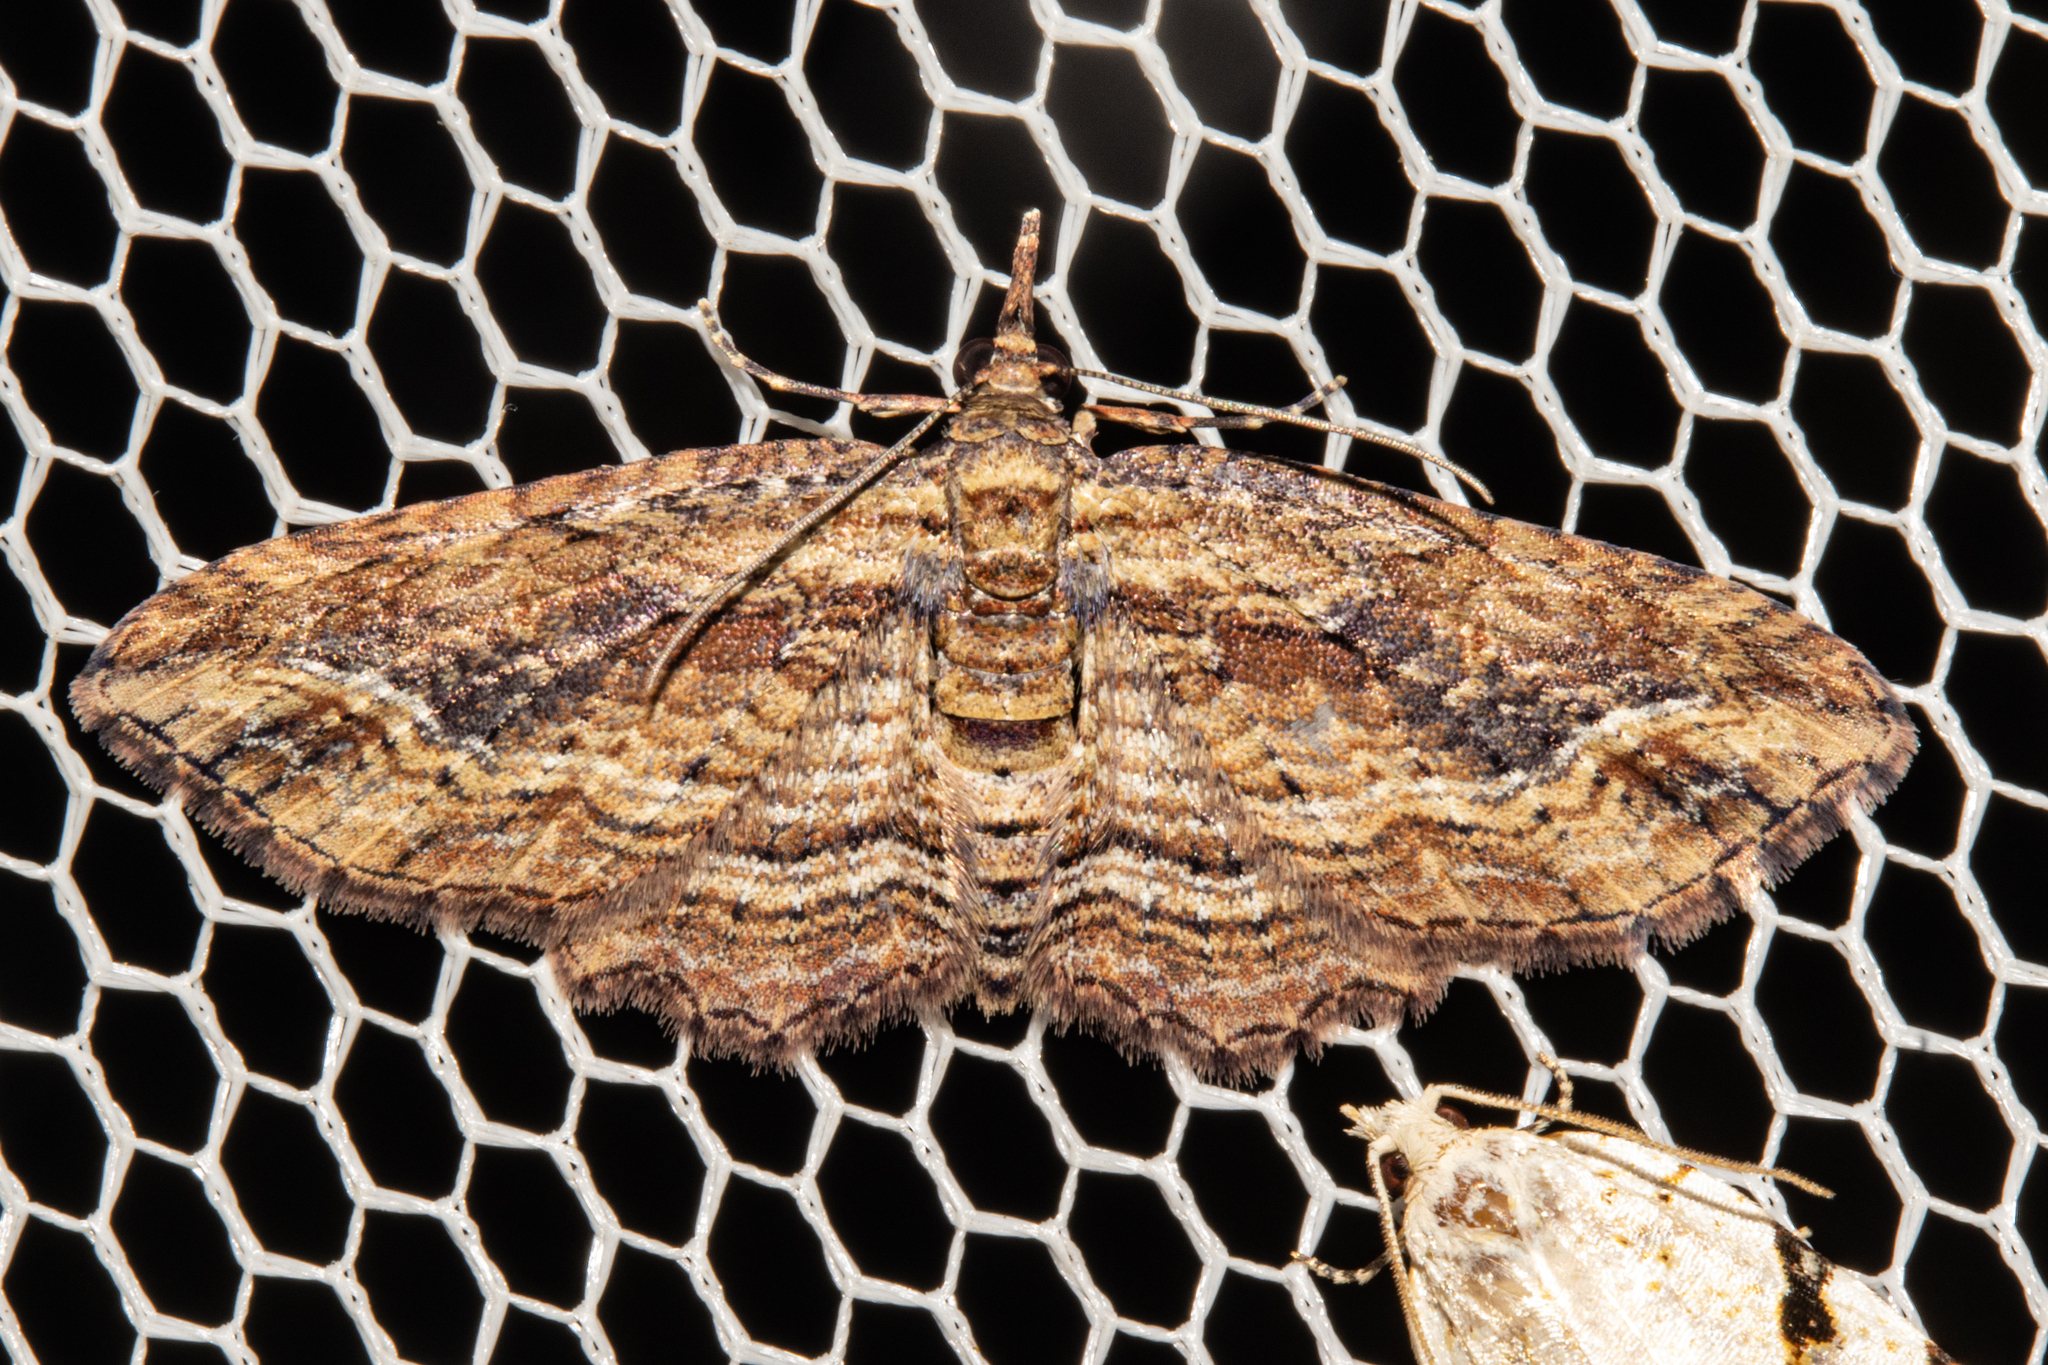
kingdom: Animalia
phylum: Arthropoda
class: Insecta
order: Lepidoptera
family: Geometridae
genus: Chloroclystis
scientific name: Chloroclystis filata
